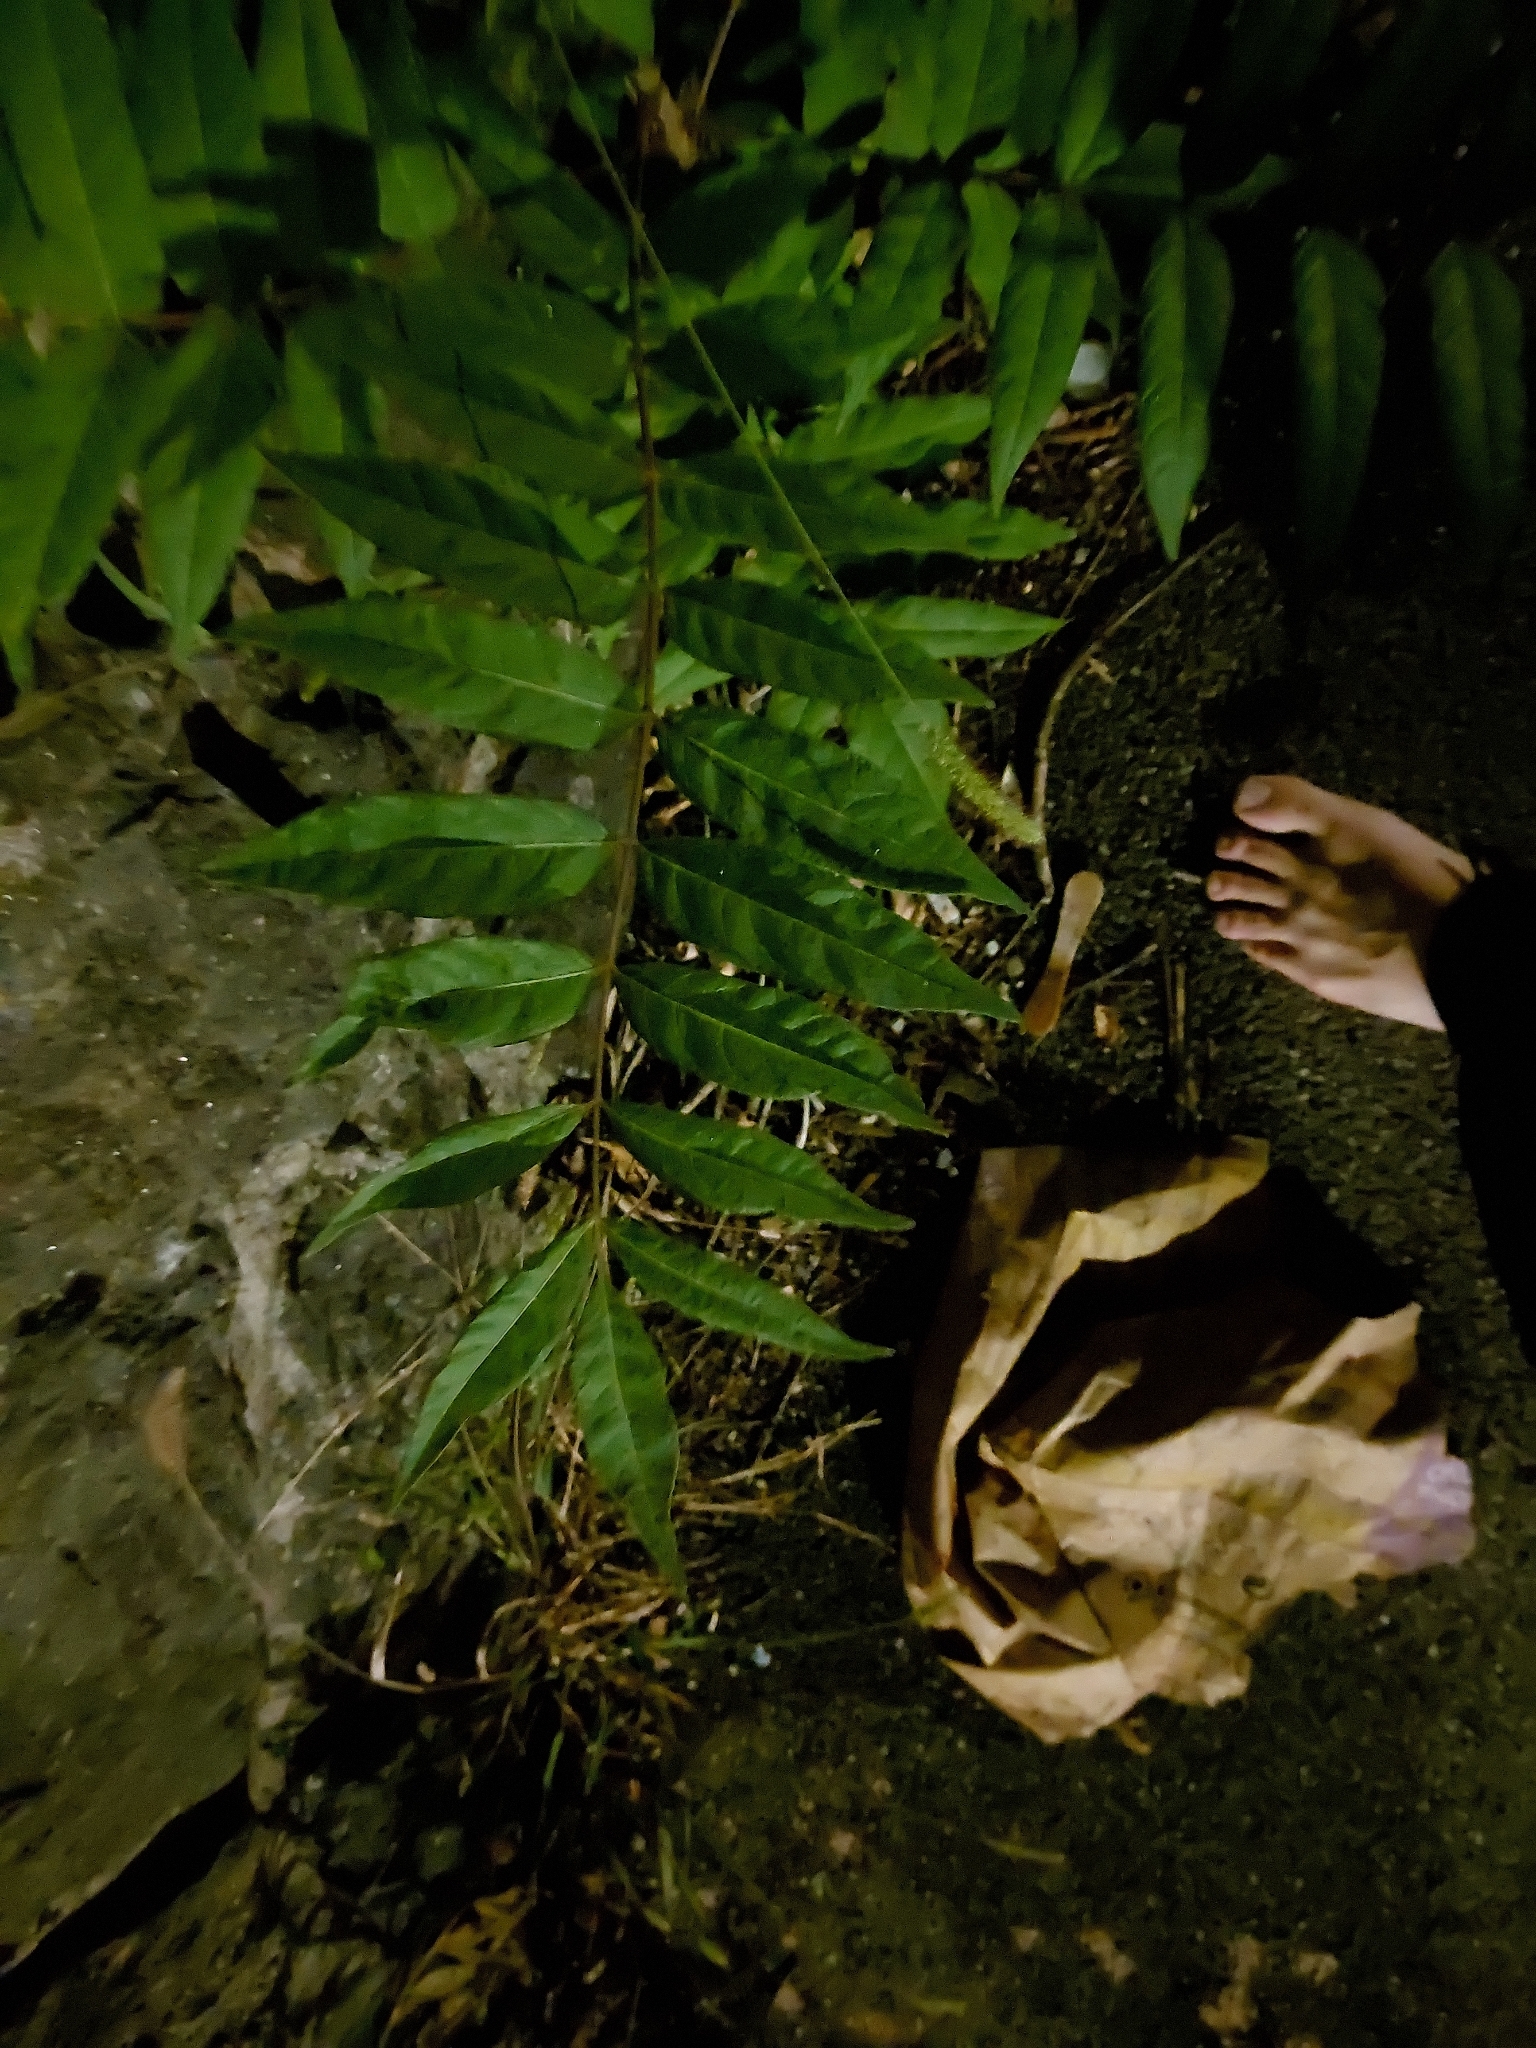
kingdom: Plantae
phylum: Tracheophyta
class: Magnoliopsida
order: Sapindales
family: Simaroubaceae
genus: Ailanthus
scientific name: Ailanthus altissima
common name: Tree-of-heaven
